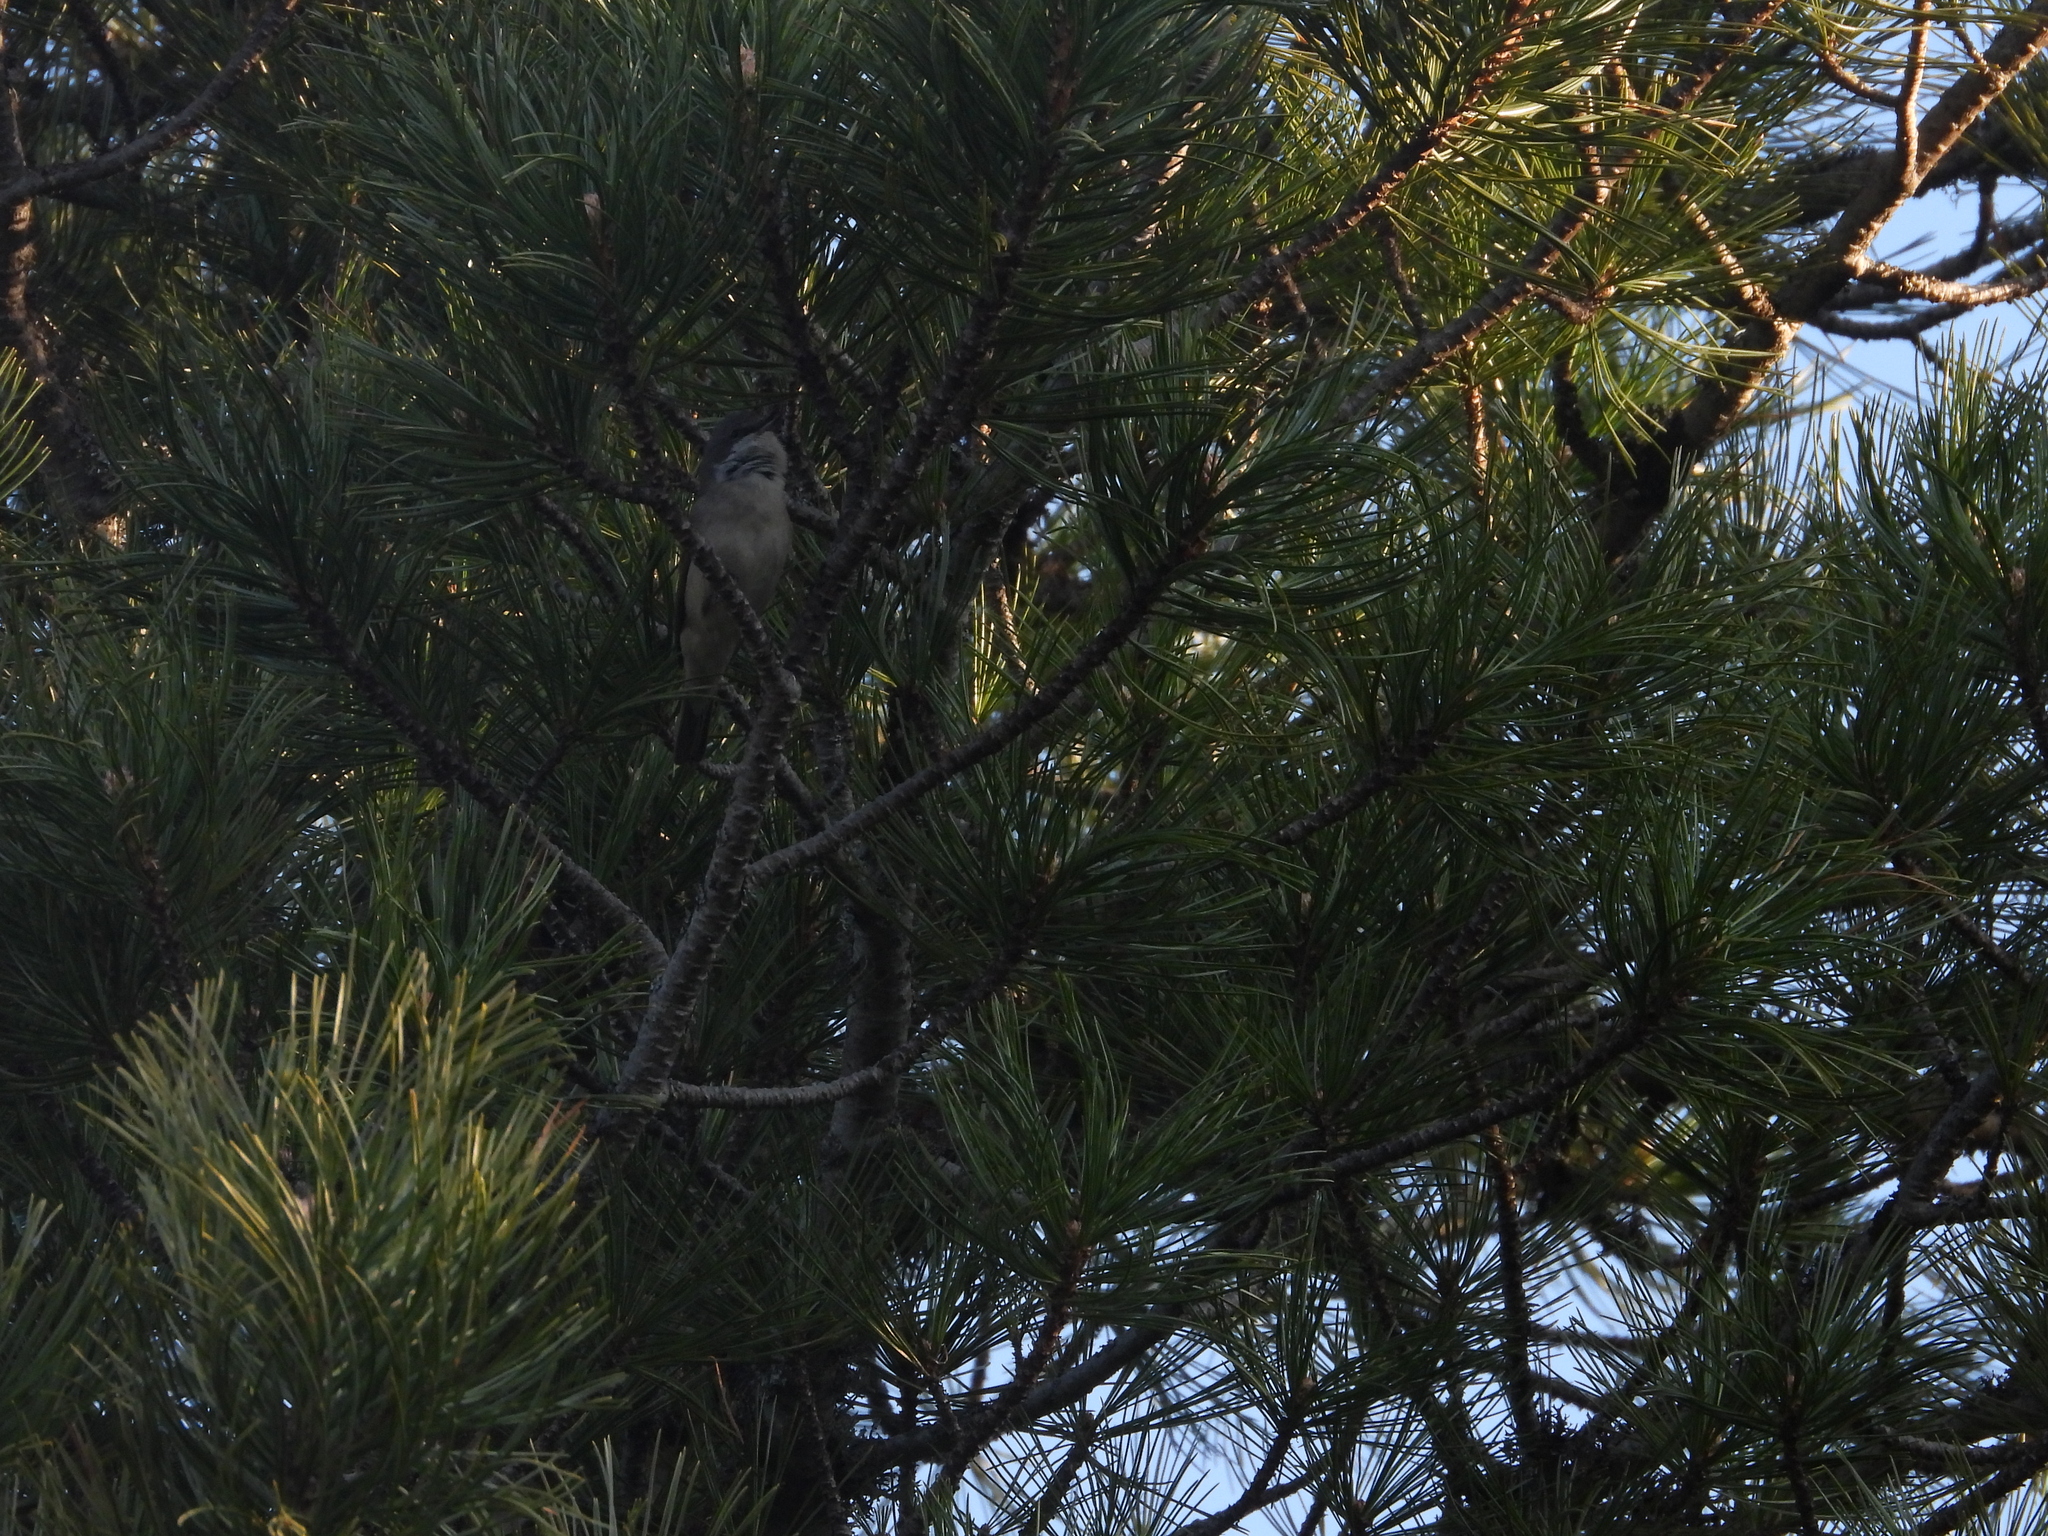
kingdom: Animalia
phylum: Chordata
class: Aves
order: Passeriformes
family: Sylviidae
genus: Sylvia
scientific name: Sylvia curruca
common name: Lesser whitethroat
